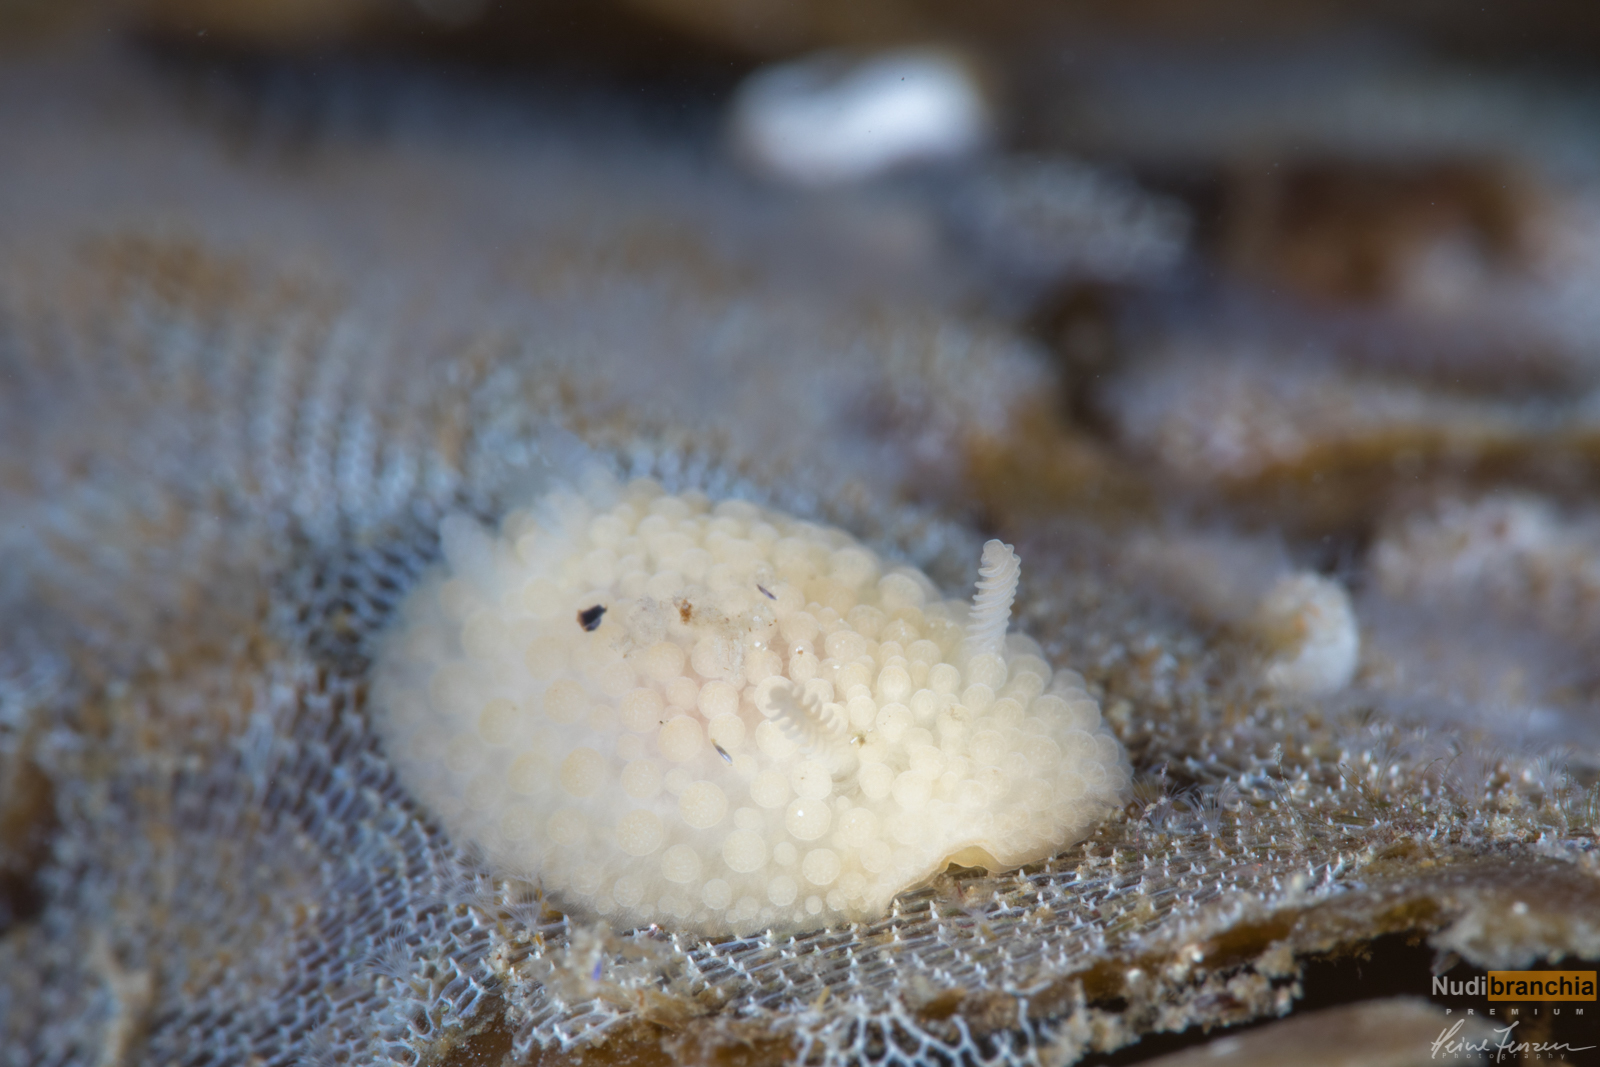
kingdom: Animalia
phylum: Mollusca
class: Gastropoda
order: Nudibranchia
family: Onchidorididae
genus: Onchidoris
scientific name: Onchidoris muricata
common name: Rough doris
